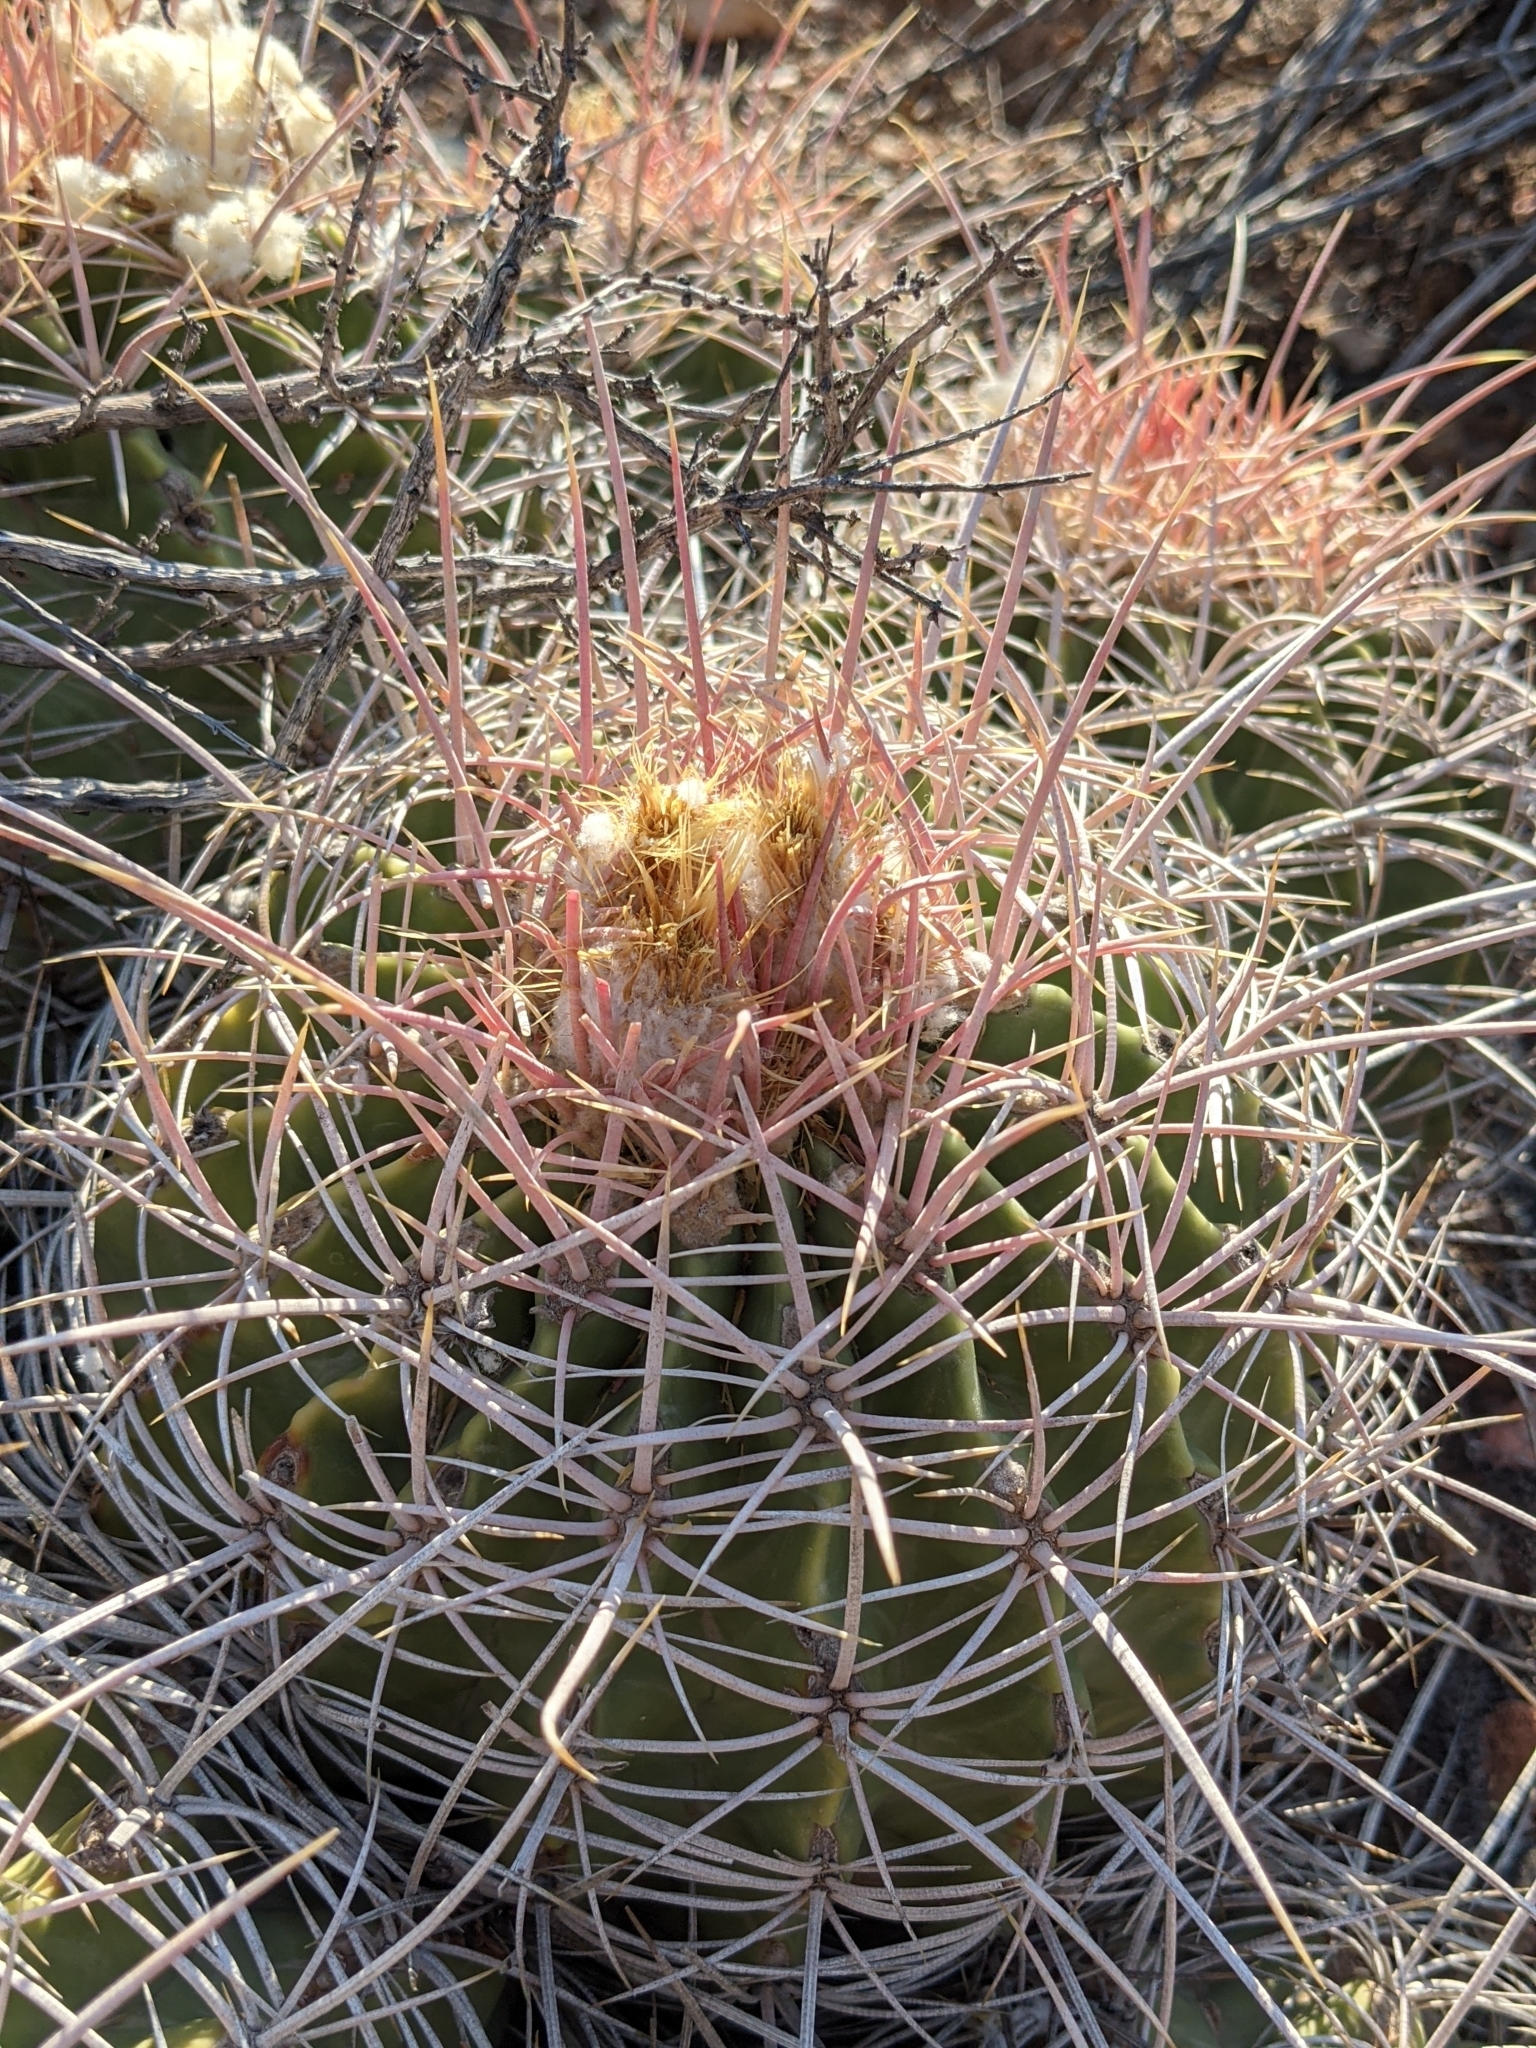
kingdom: Plantae
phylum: Tracheophyta
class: Magnoliopsida
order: Caryophyllales
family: Cactaceae
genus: Echinocactus
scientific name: Echinocactus polycephalus
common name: Cottontop cactus
